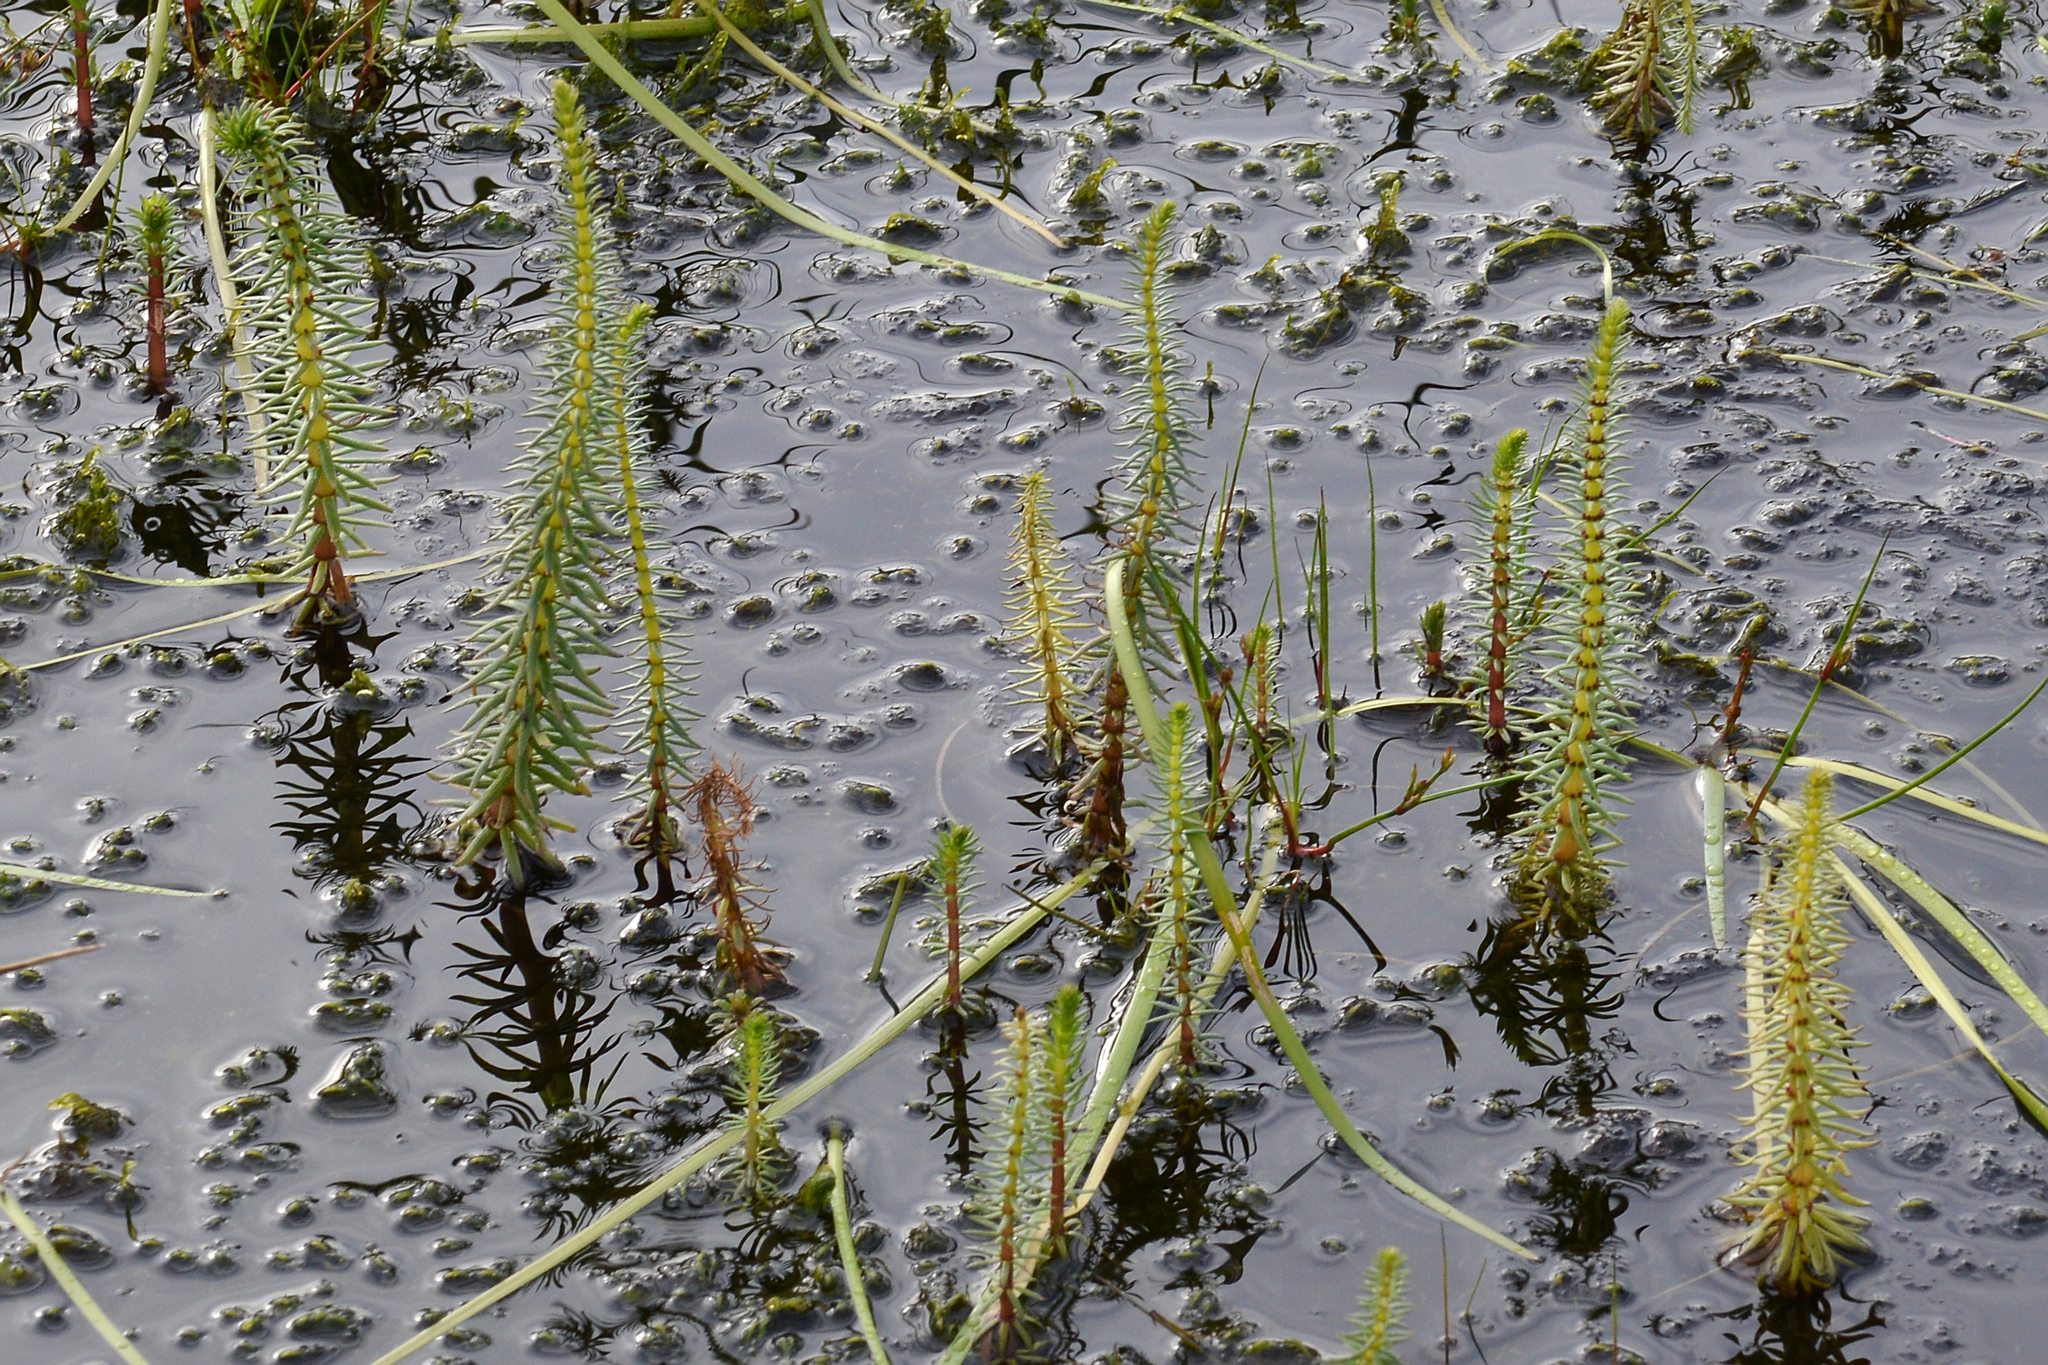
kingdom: Plantae
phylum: Tracheophyta
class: Magnoliopsida
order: Lamiales
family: Plantaginaceae
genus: Hippuris
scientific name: Hippuris vulgaris
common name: Mare's-tail
